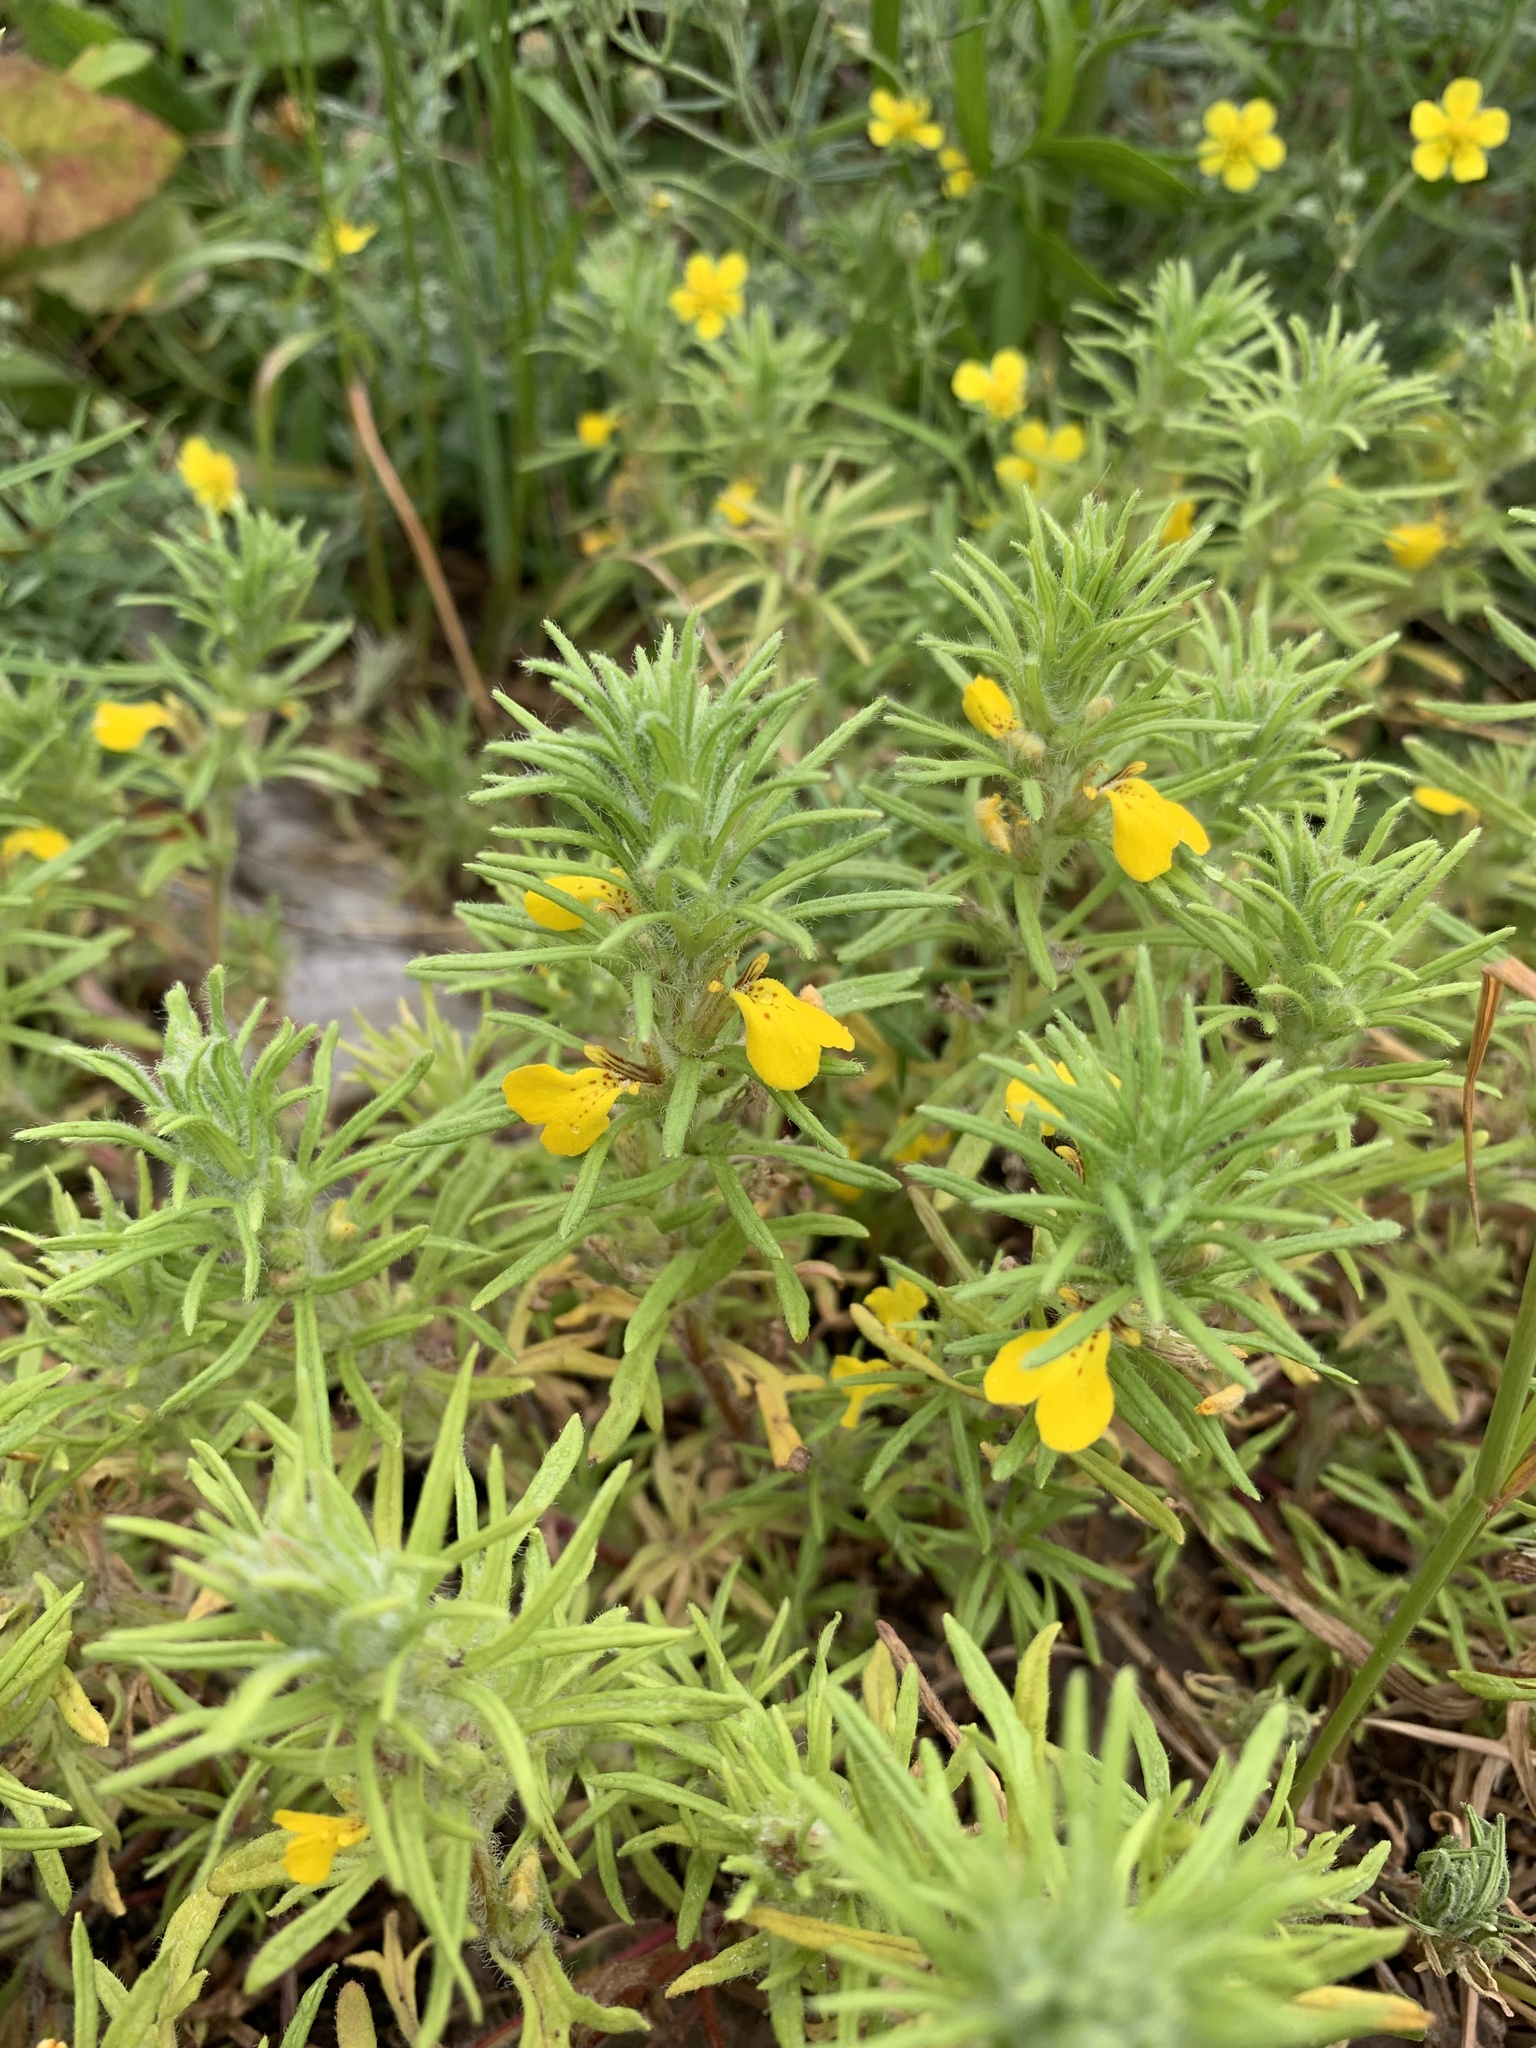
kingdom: Plantae
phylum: Tracheophyta
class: Magnoliopsida
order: Lamiales
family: Lamiaceae
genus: Ajuga
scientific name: Ajuga chamaepitys
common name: Ground-pine
